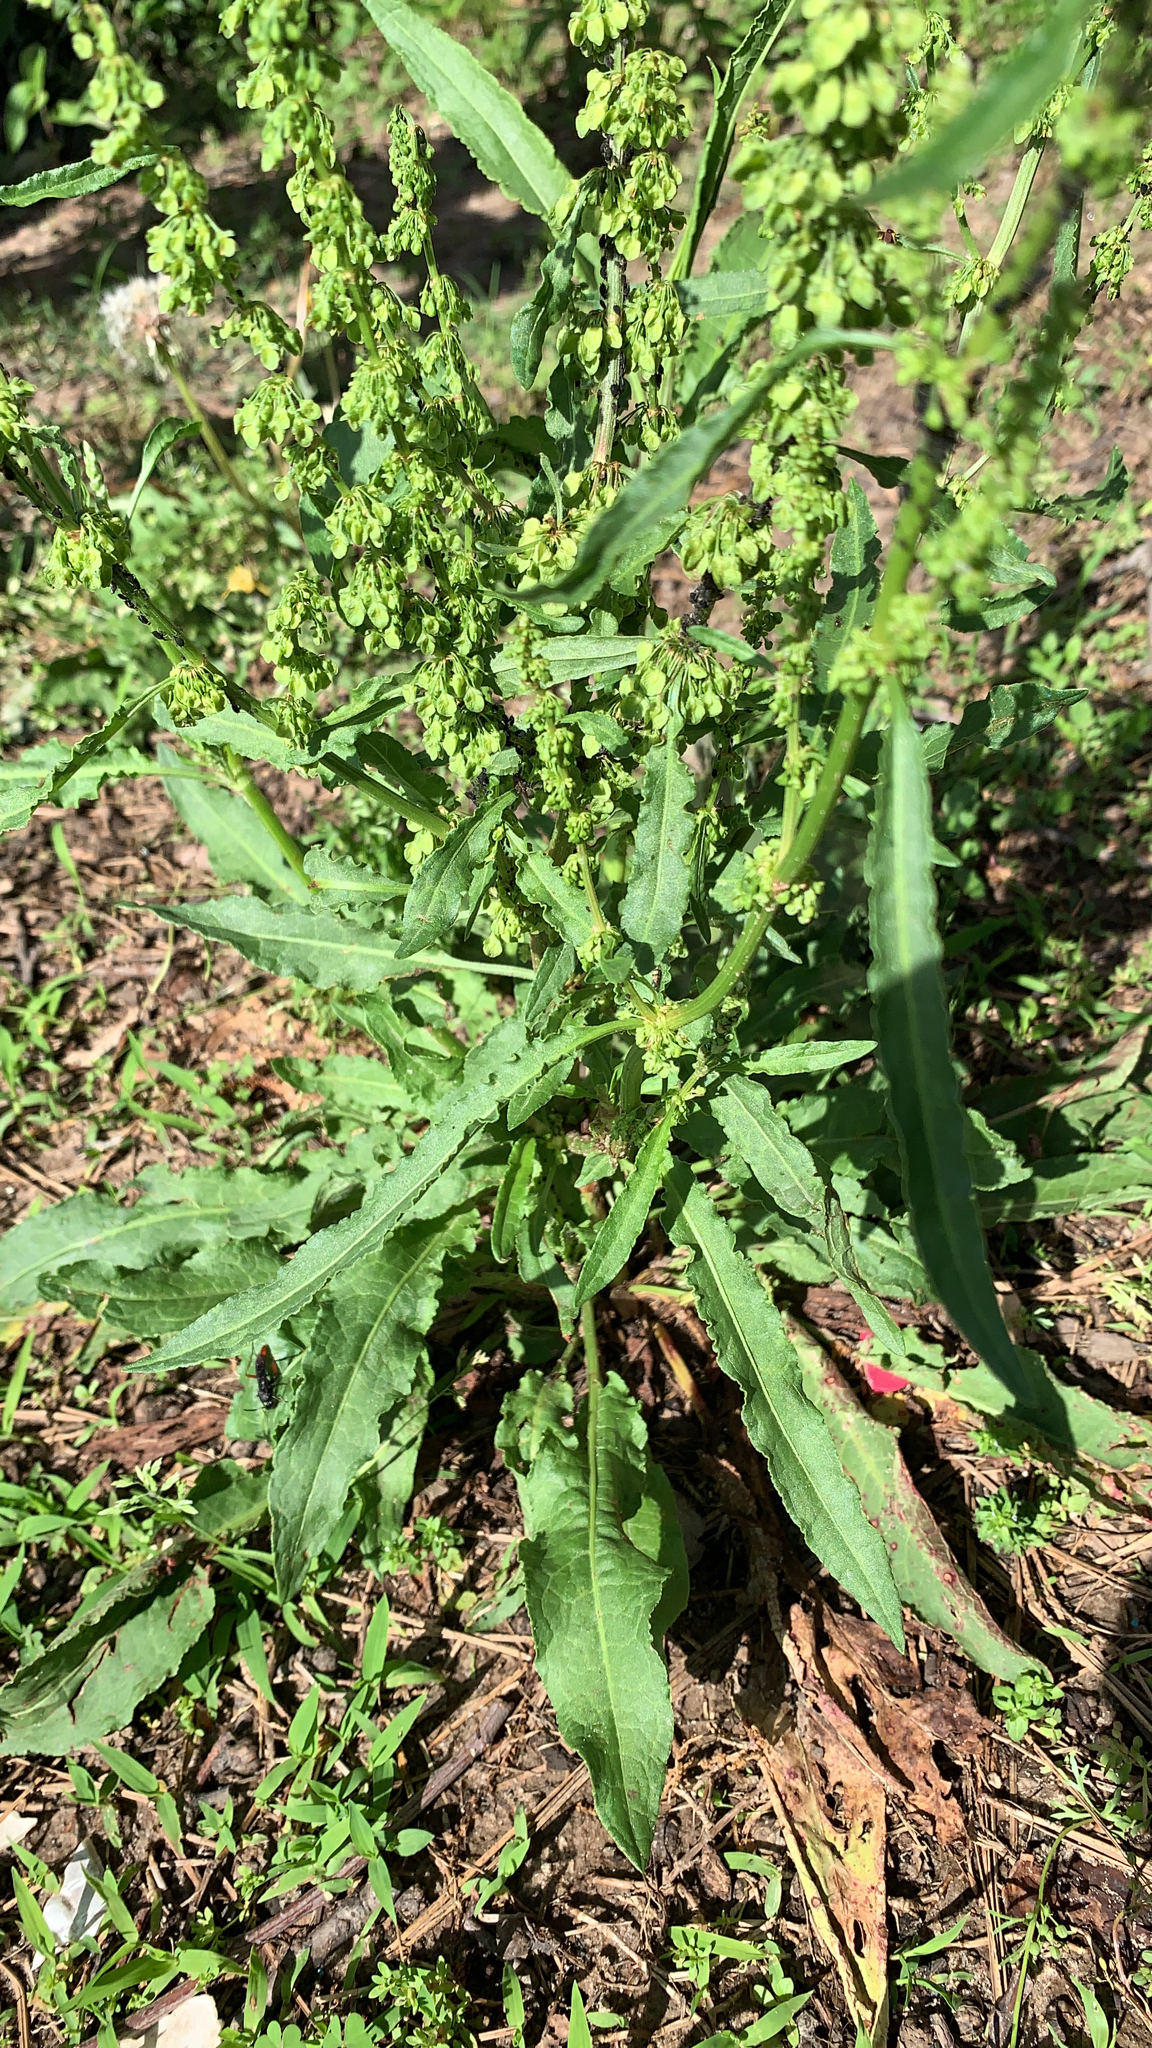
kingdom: Plantae
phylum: Tracheophyta
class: Magnoliopsida
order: Caryophyllales
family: Polygonaceae
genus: Rumex
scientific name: Rumex crispus
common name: Curled dock
